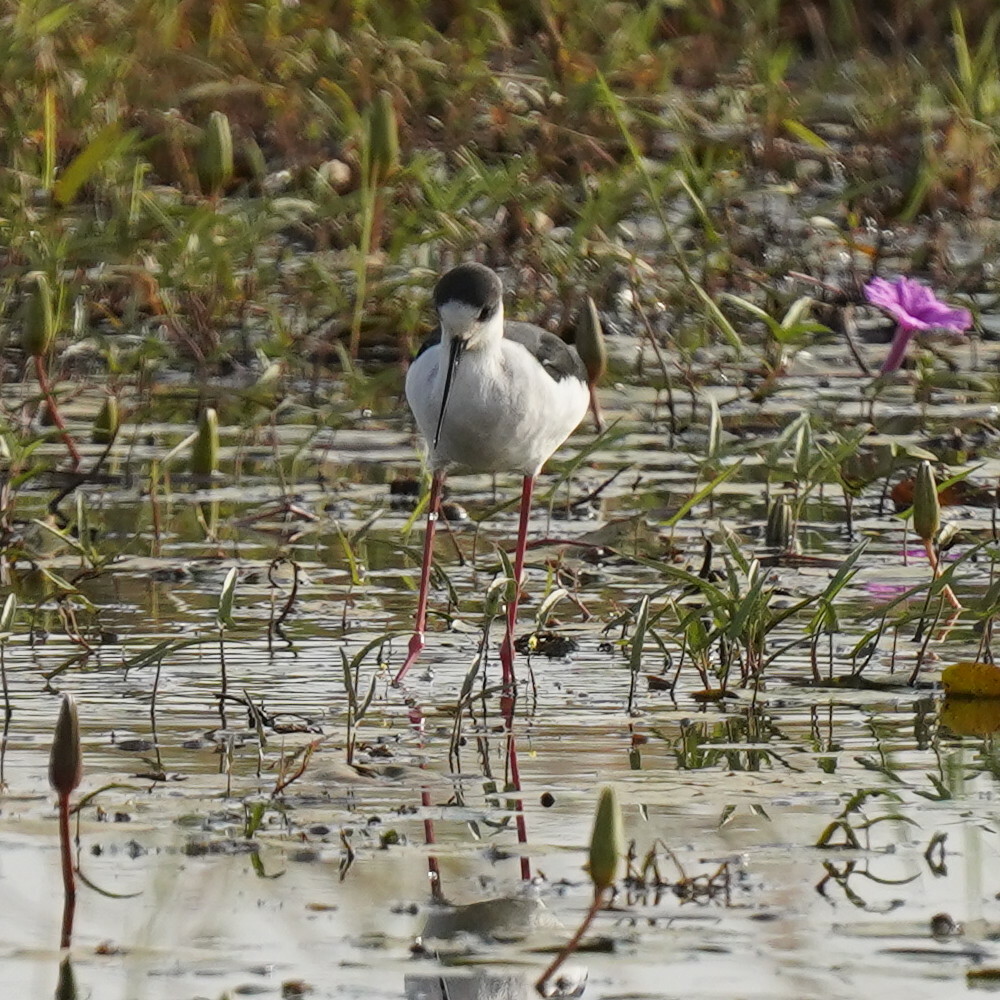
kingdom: Animalia
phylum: Chordata
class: Aves
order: Charadriiformes
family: Recurvirostridae
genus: Himantopus
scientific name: Himantopus himantopus
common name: Black-winged stilt
